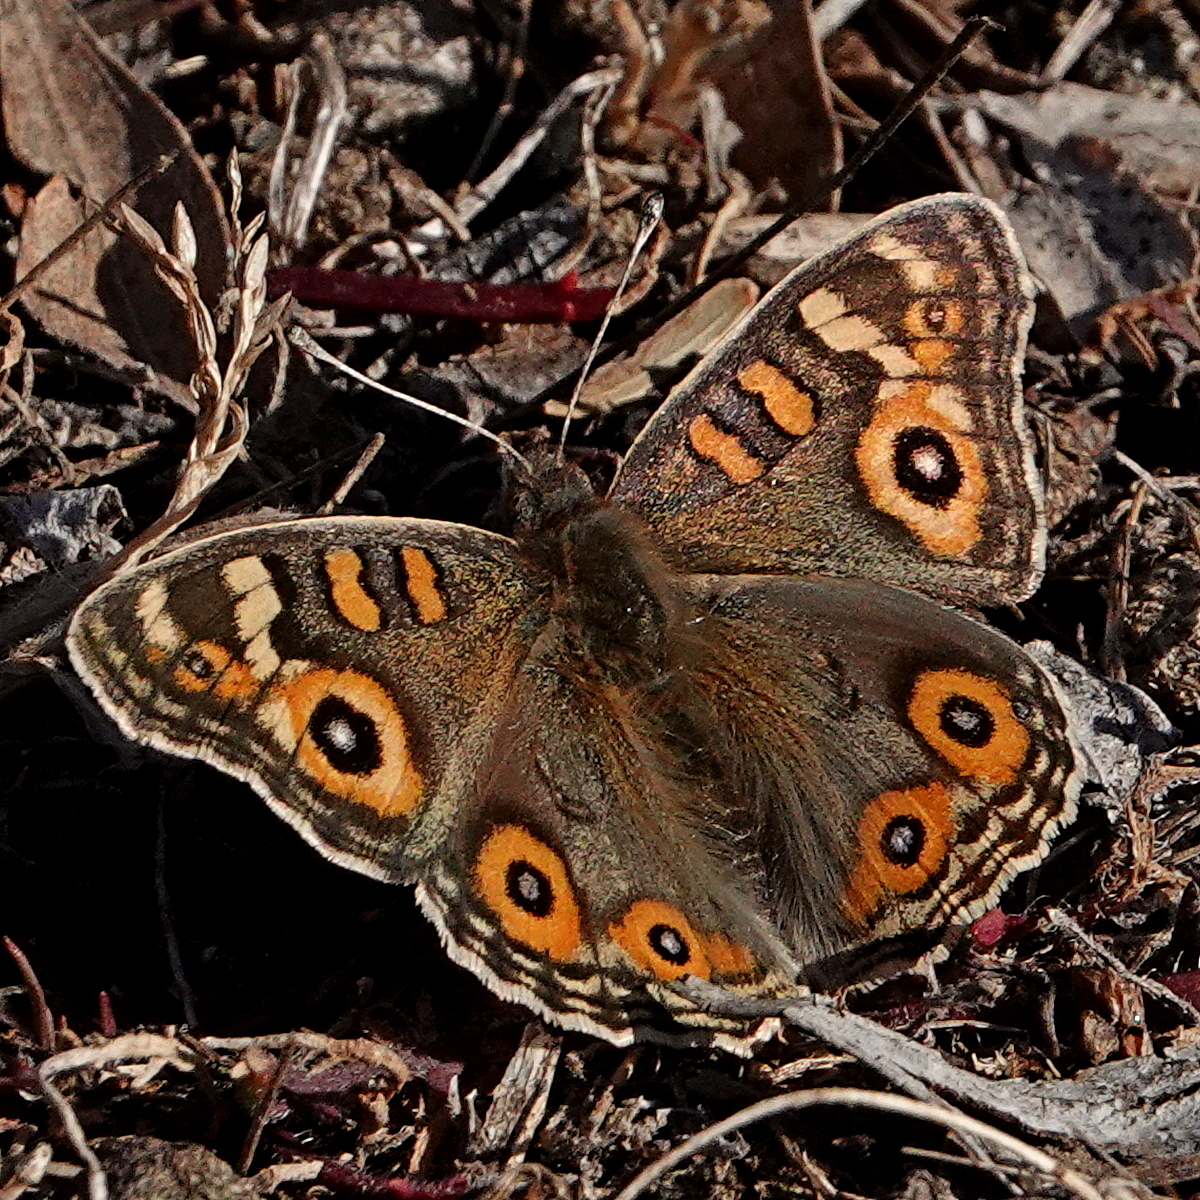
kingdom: Animalia
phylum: Arthropoda
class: Insecta
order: Lepidoptera
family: Nymphalidae
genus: Junonia
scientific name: Junonia villida
